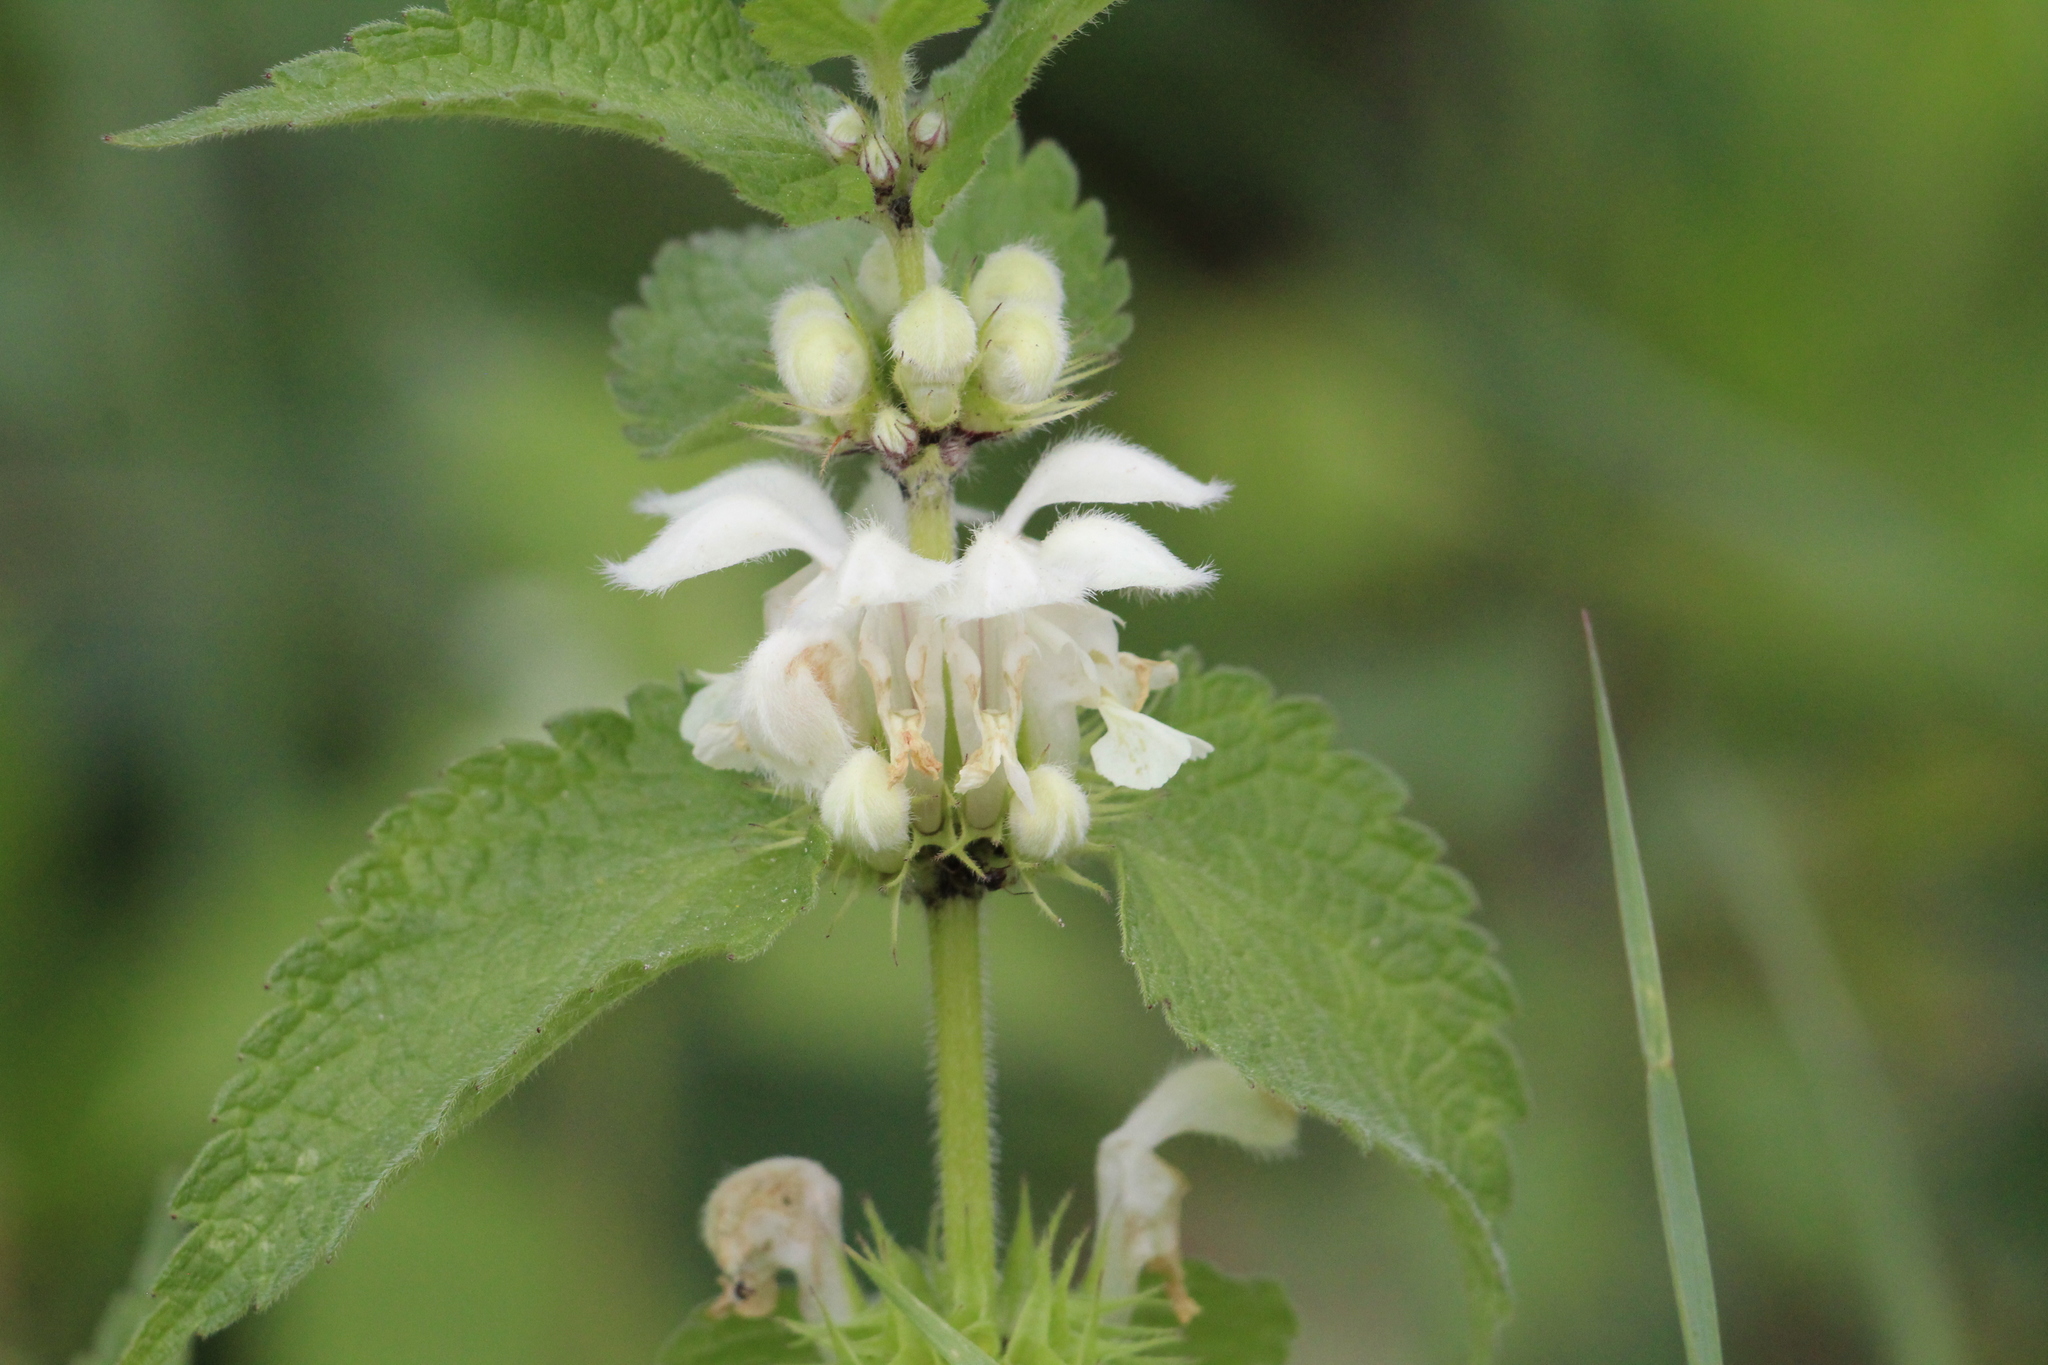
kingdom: Plantae
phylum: Tracheophyta
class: Magnoliopsida
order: Lamiales
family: Lamiaceae
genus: Lamium
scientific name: Lamium album
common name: White dead-nettle
